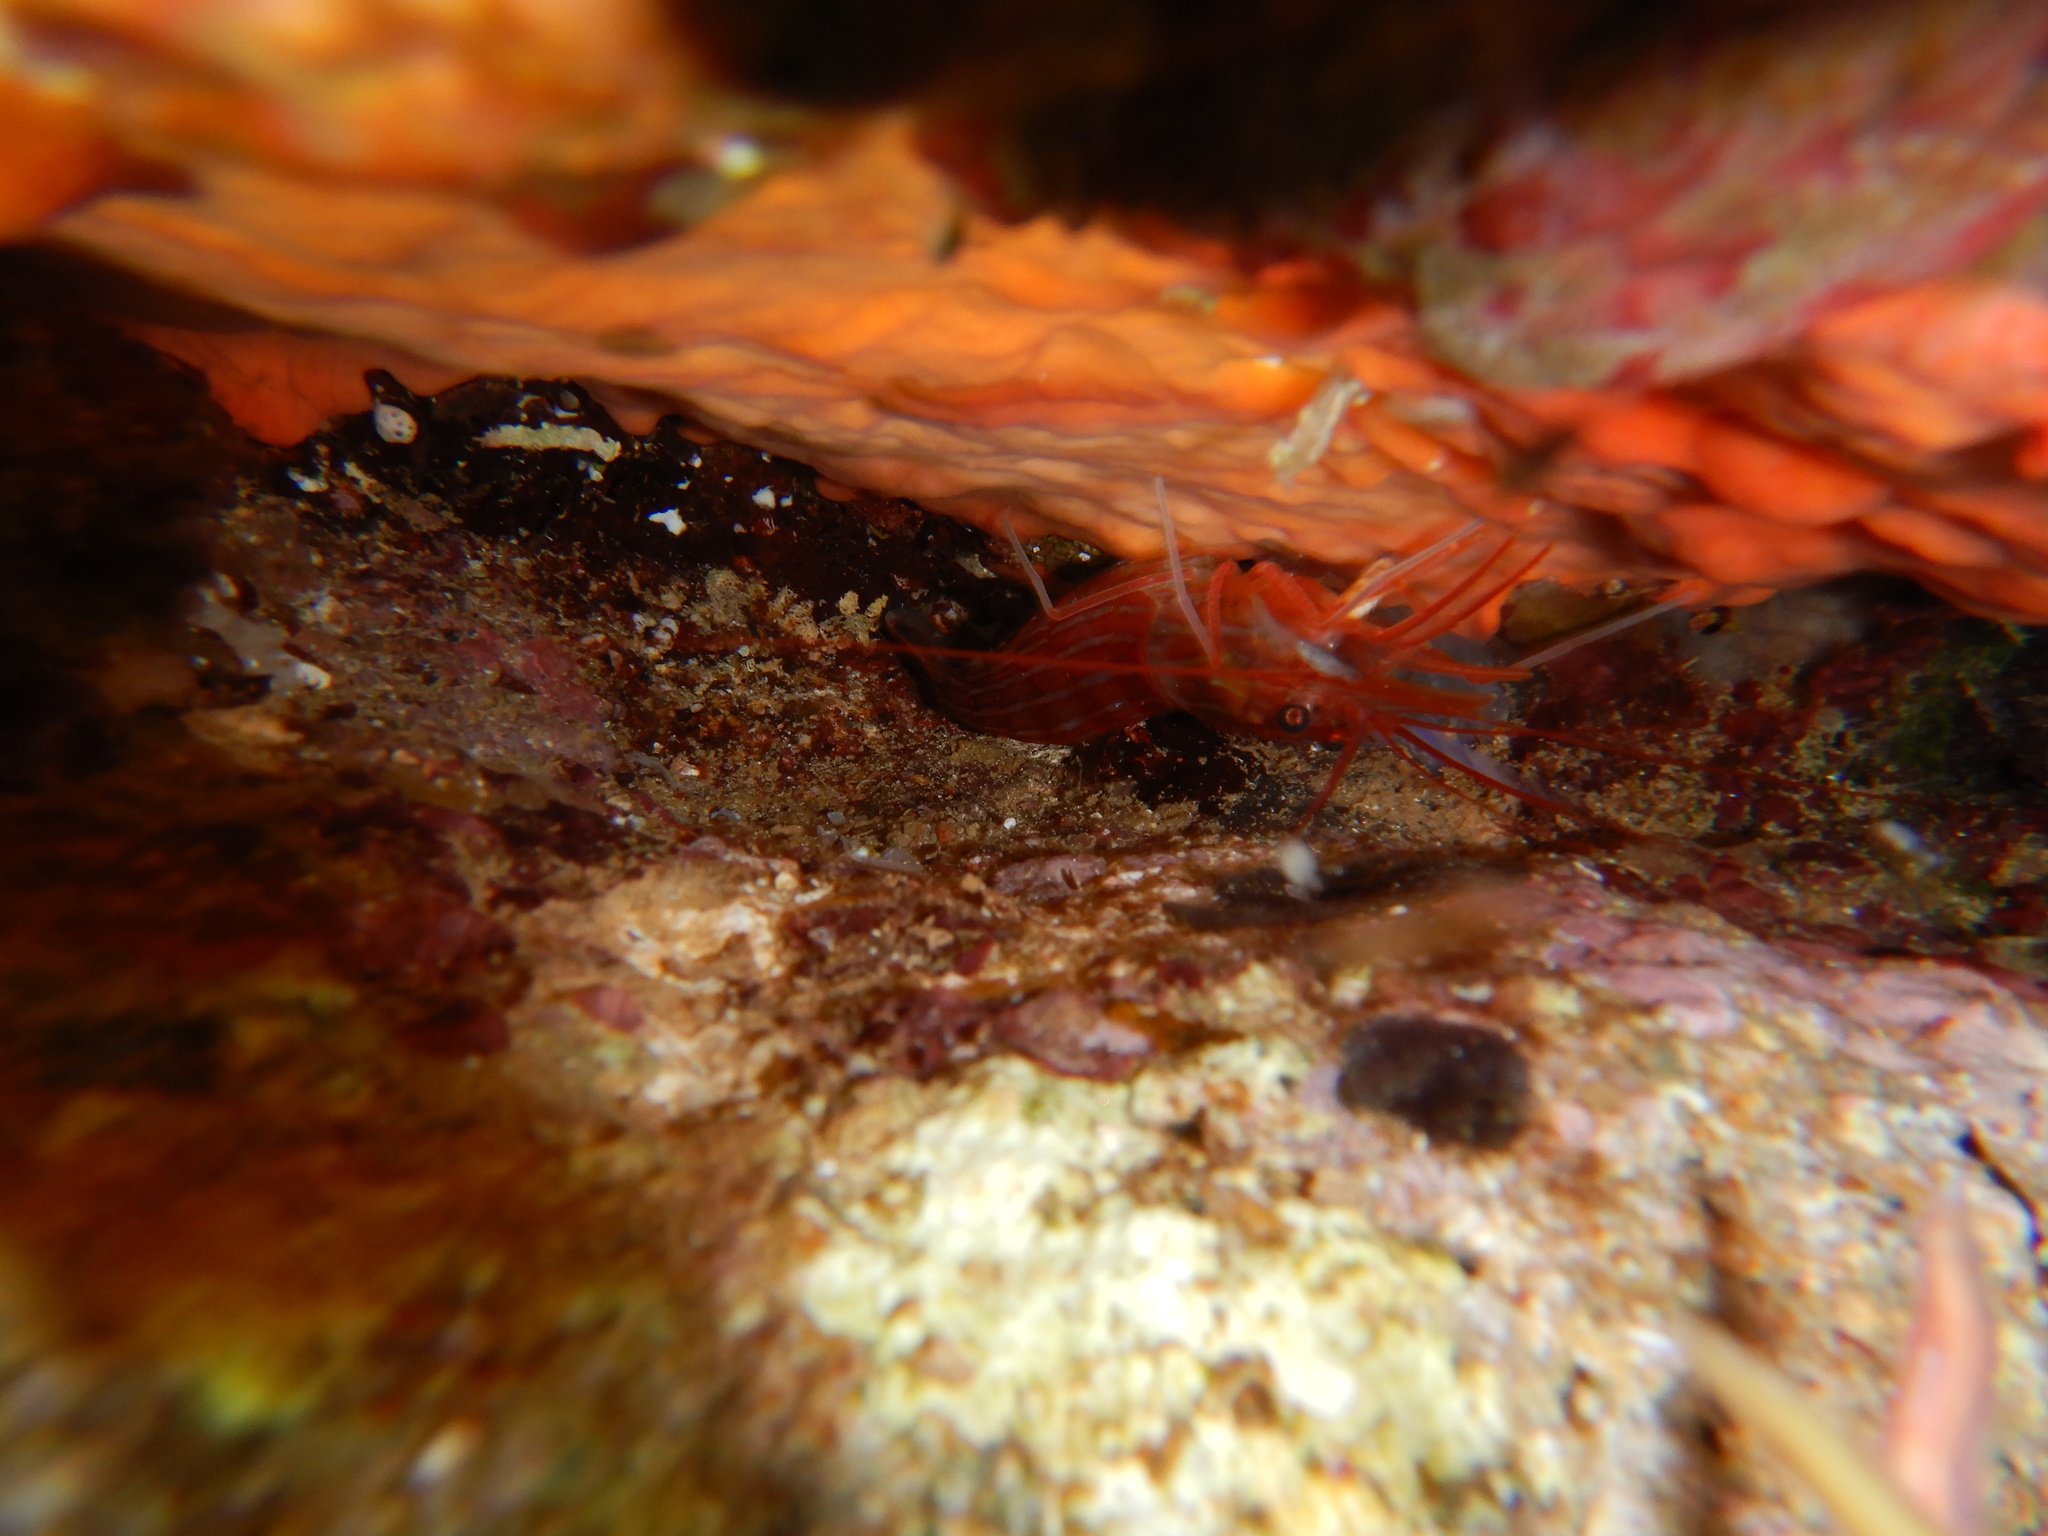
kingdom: Animalia
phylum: Arthropoda
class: Malacostraca
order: Decapoda
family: Lysmatidae
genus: Lysmata
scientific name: Lysmata seticaudata
